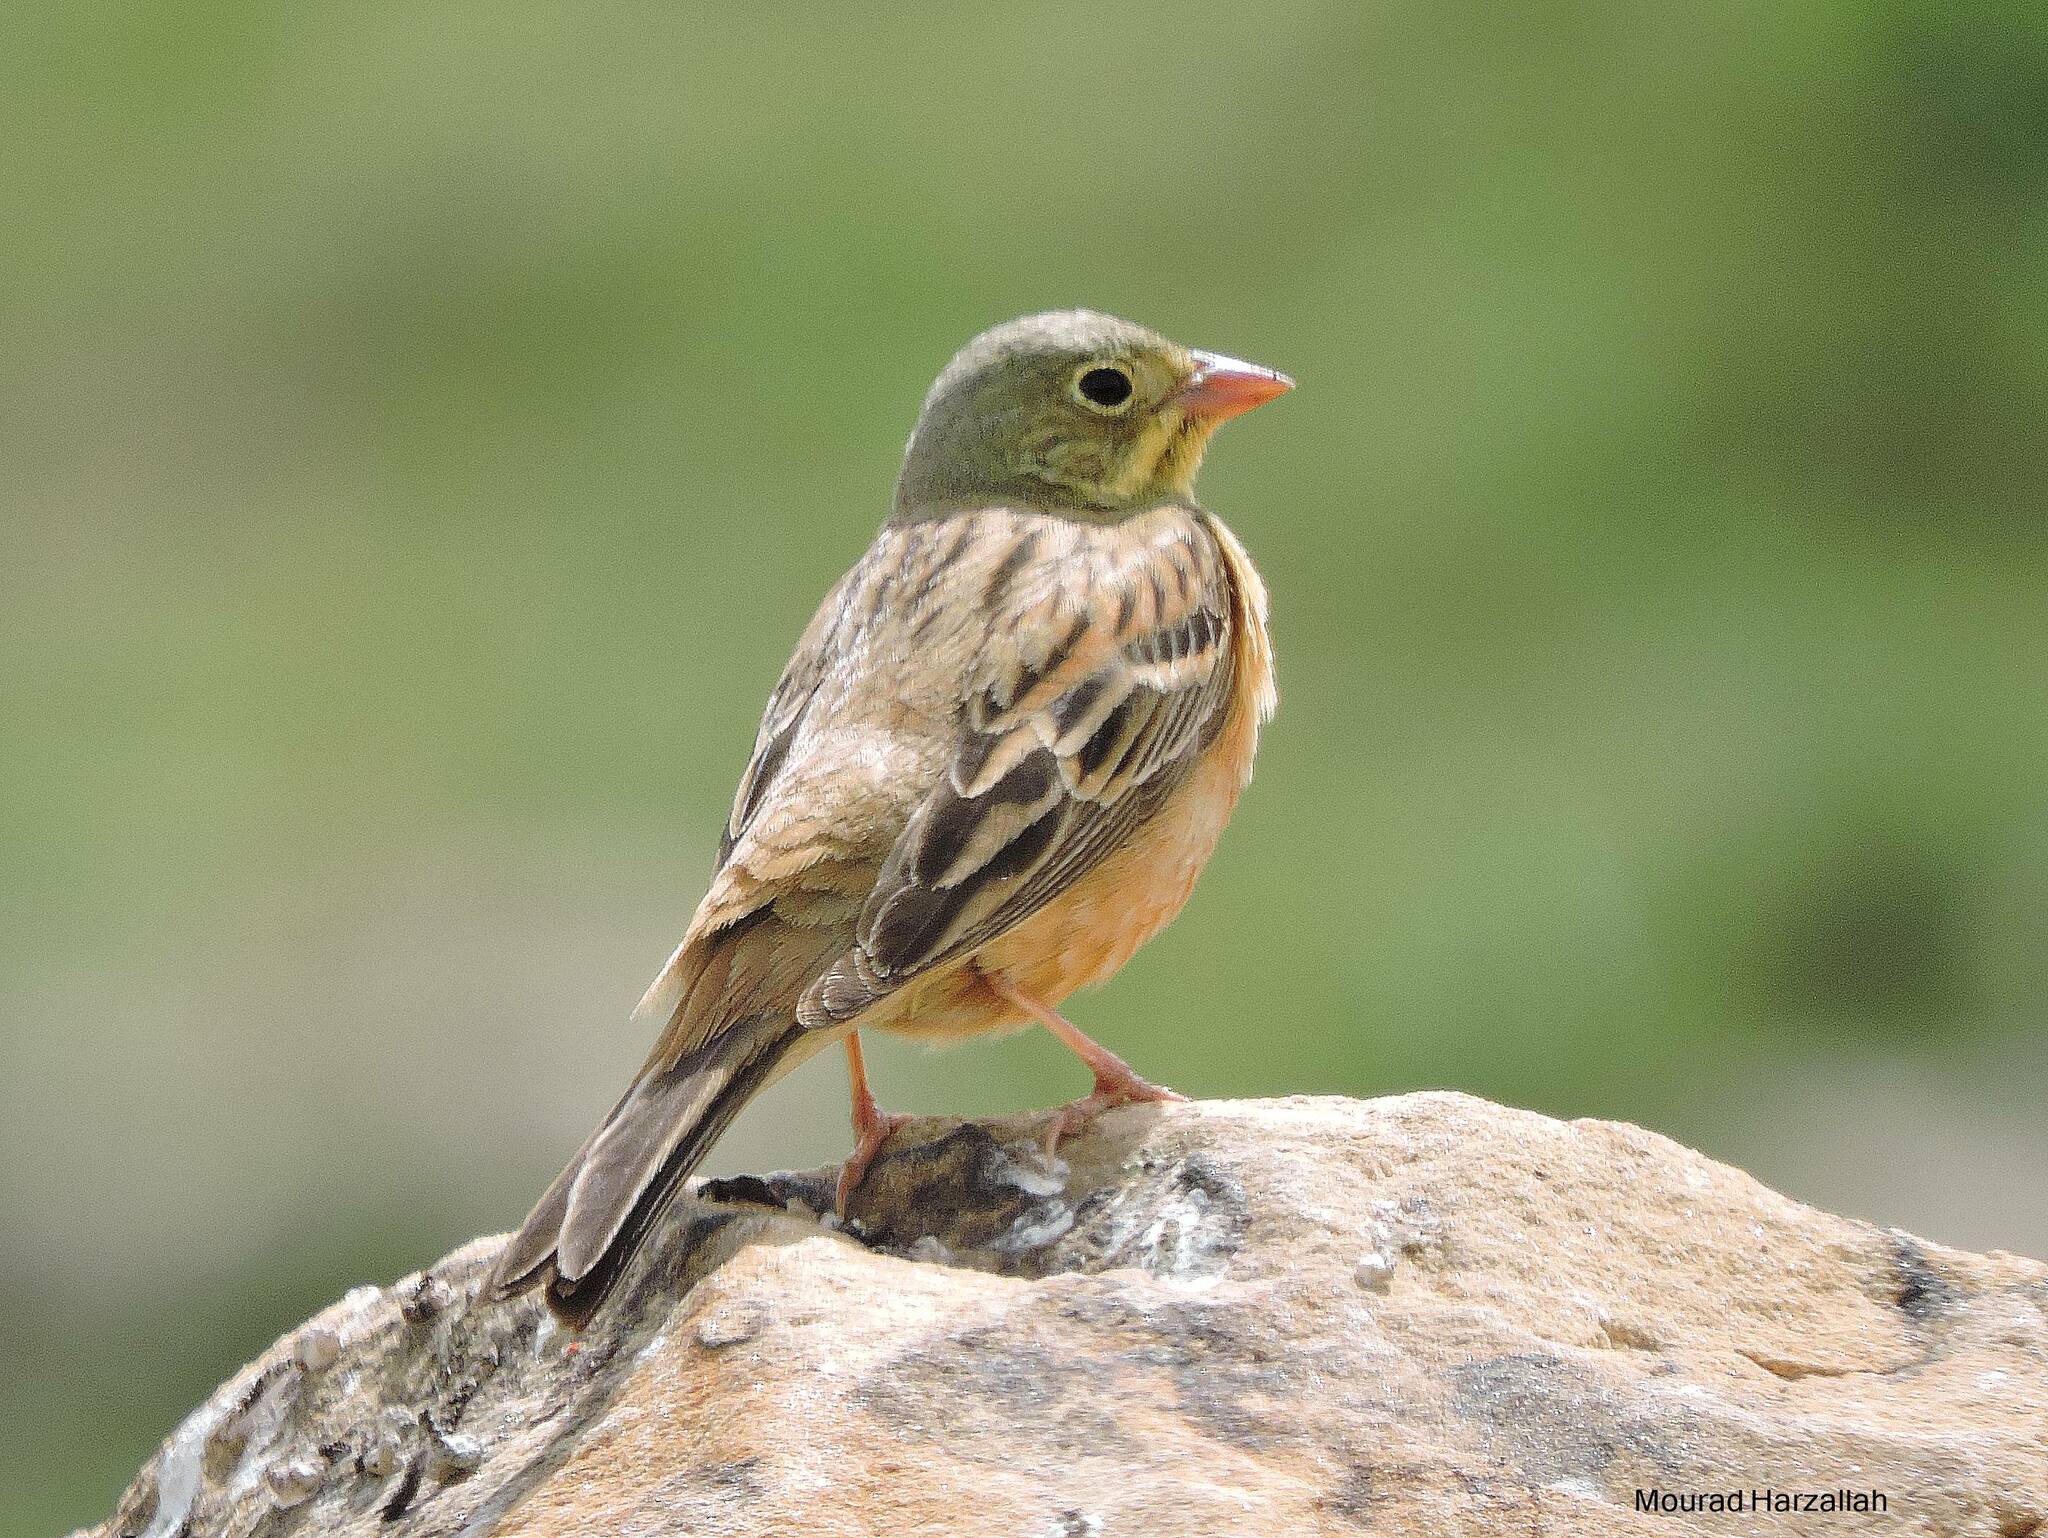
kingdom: Animalia
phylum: Chordata
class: Aves
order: Passeriformes
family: Emberizidae
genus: Emberiza
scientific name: Emberiza hortulana
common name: Ortolan bunting
